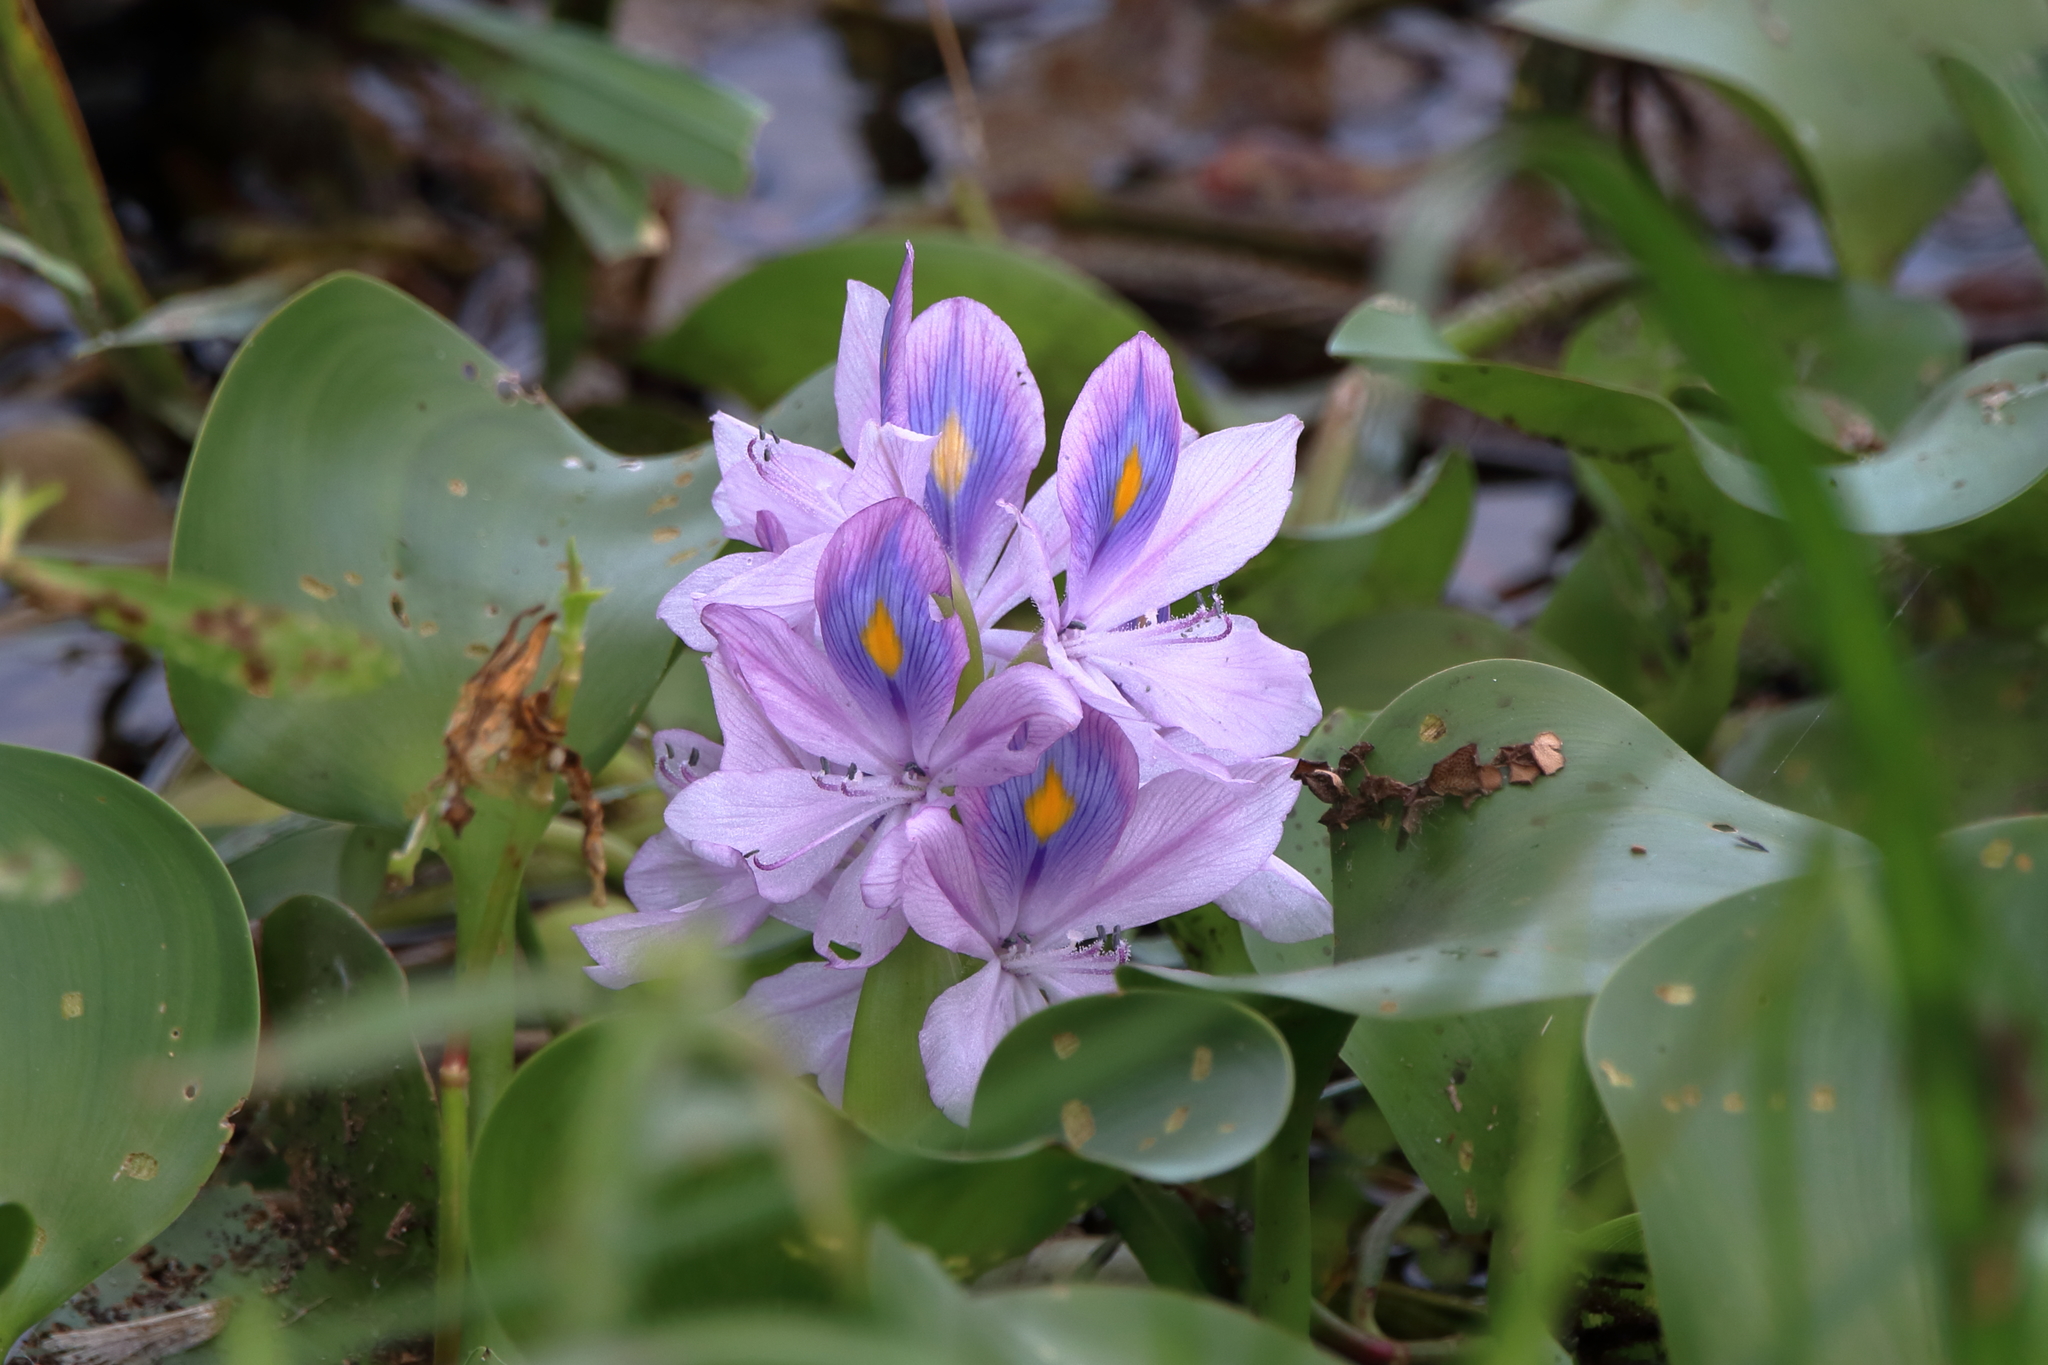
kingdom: Plantae
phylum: Tracheophyta
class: Liliopsida
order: Commelinales
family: Pontederiaceae
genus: Pontederia
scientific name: Pontederia crassipes
